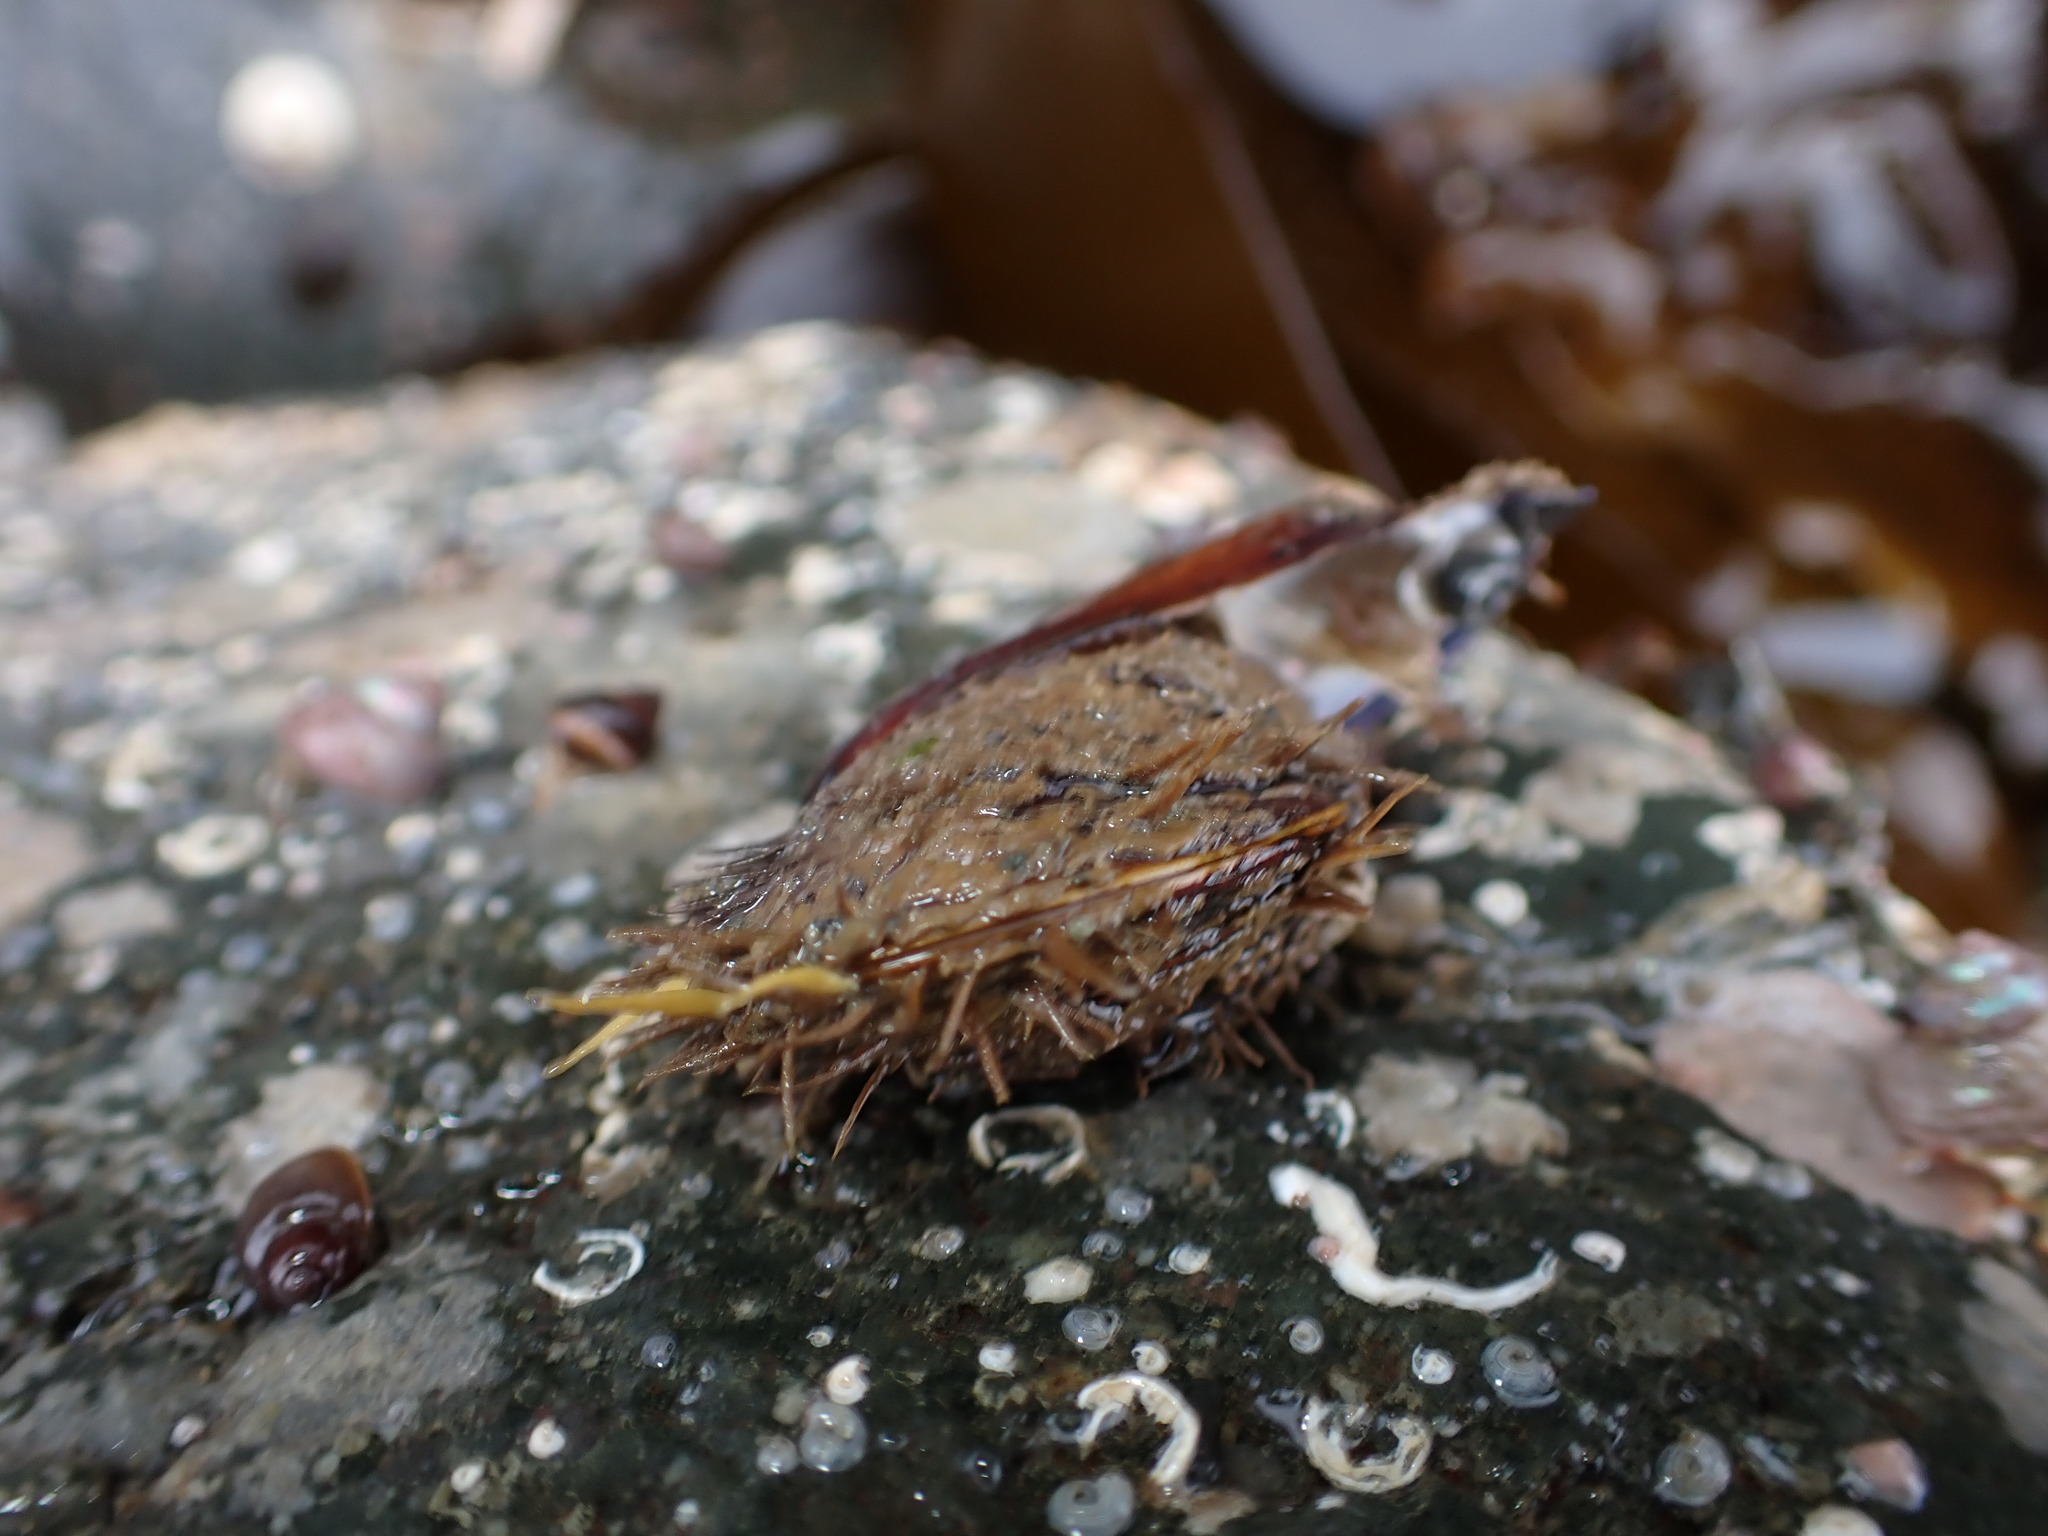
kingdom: Animalia
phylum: Mollusca
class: Bivalvia
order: Mytilida
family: Mytilidae
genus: Modiolus
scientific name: Modiolus modiolus
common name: Horse-mussel
